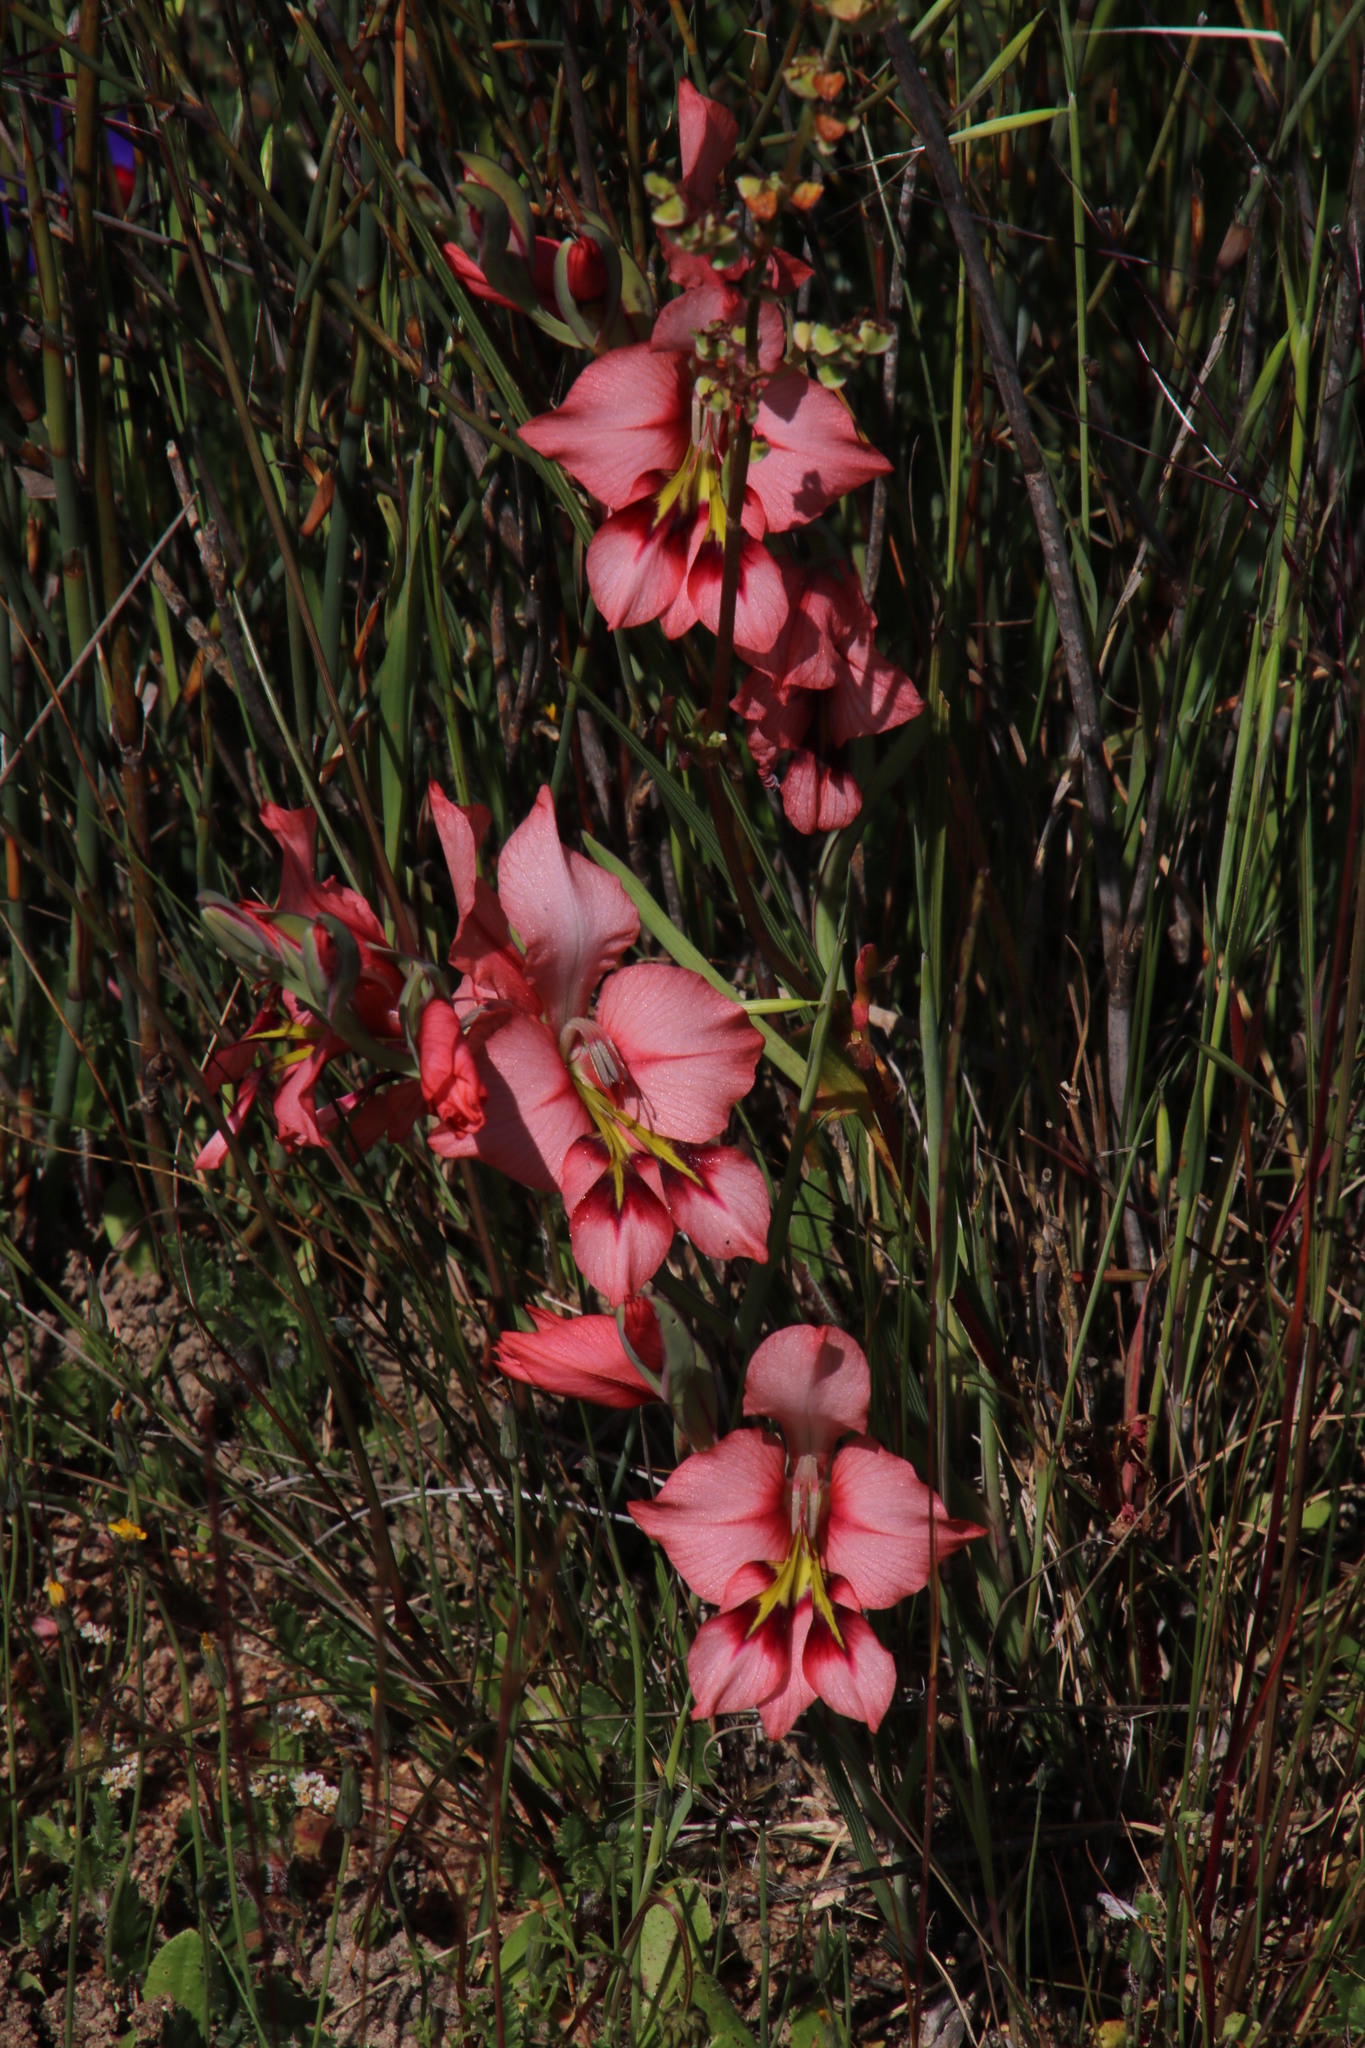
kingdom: Plantae
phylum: Tracheophyta
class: Liliopsida
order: Asparagales
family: Iridaceae
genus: Gladiolus
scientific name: Gladiolus meliusculus
